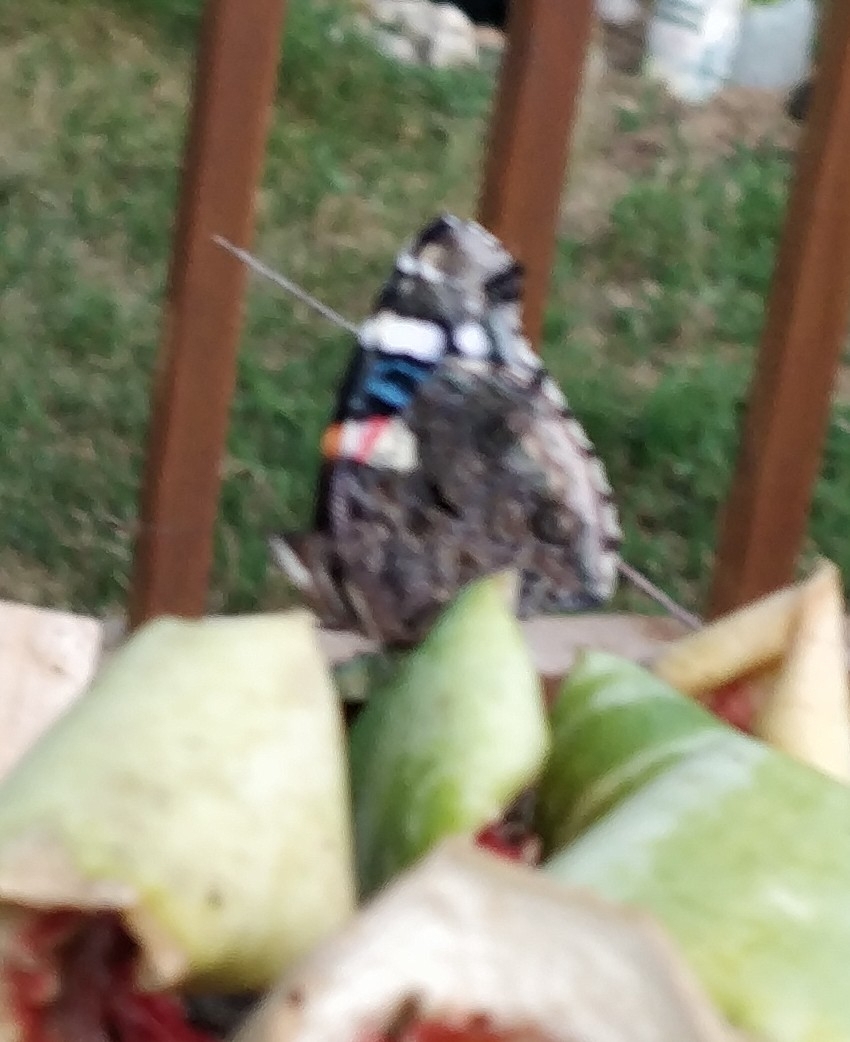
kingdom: Animalia
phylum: Arthropoda
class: Insecta
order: Lepidoptera
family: Nymphalidae
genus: Vanessa
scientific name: Vanessa atalanta
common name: Red admiral
